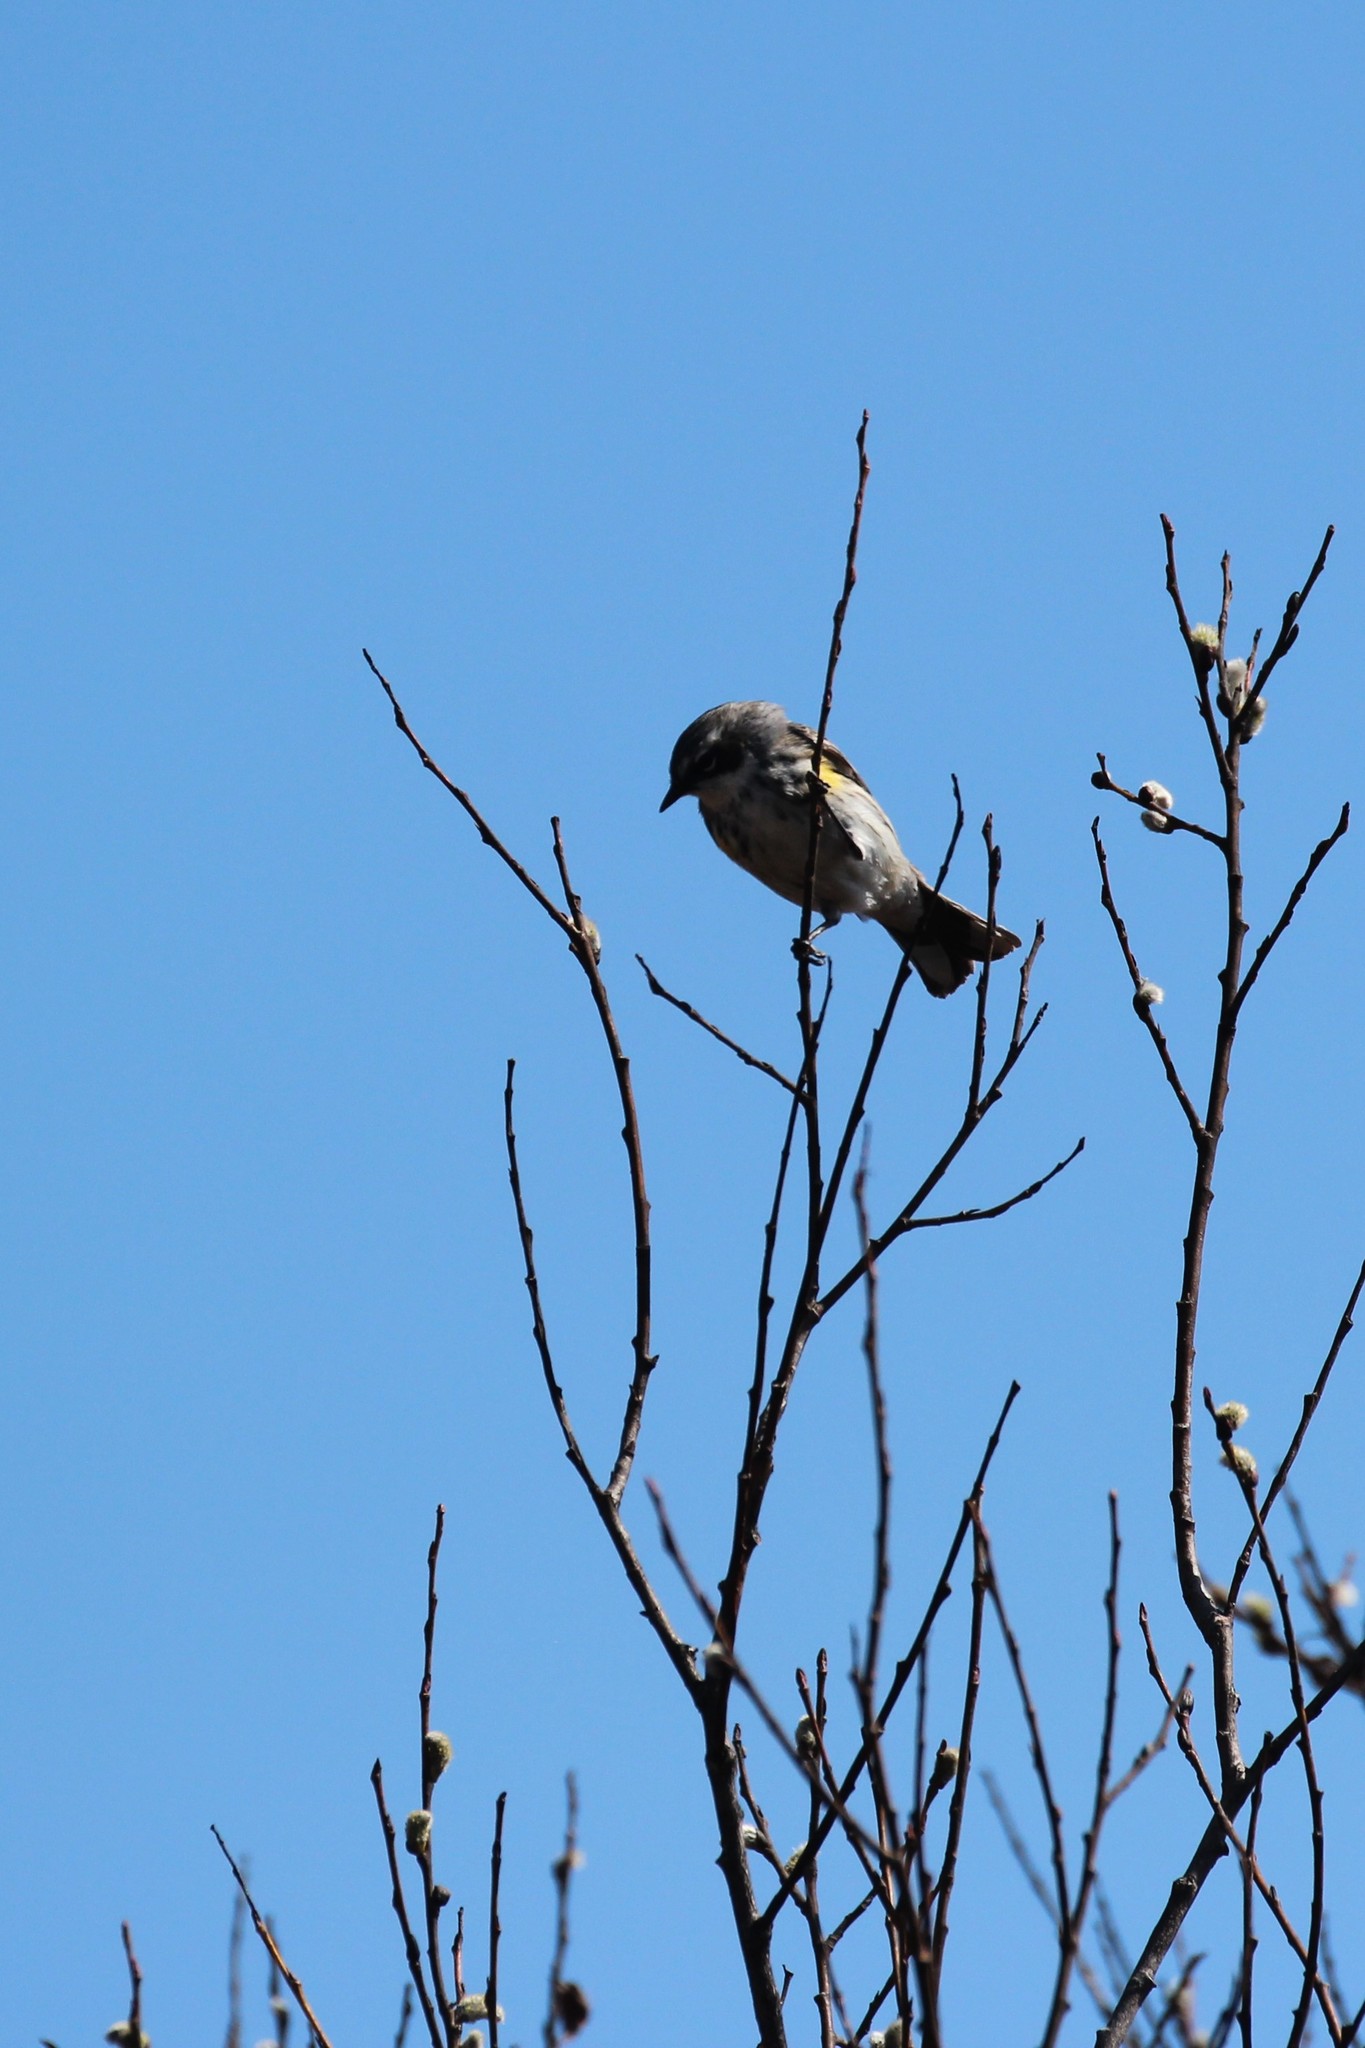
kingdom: Animalia
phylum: Chordata
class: Aves
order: Passeriformes
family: Parulidae
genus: Setophaga
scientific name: Setophaga coronata
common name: Myrtle warbler
